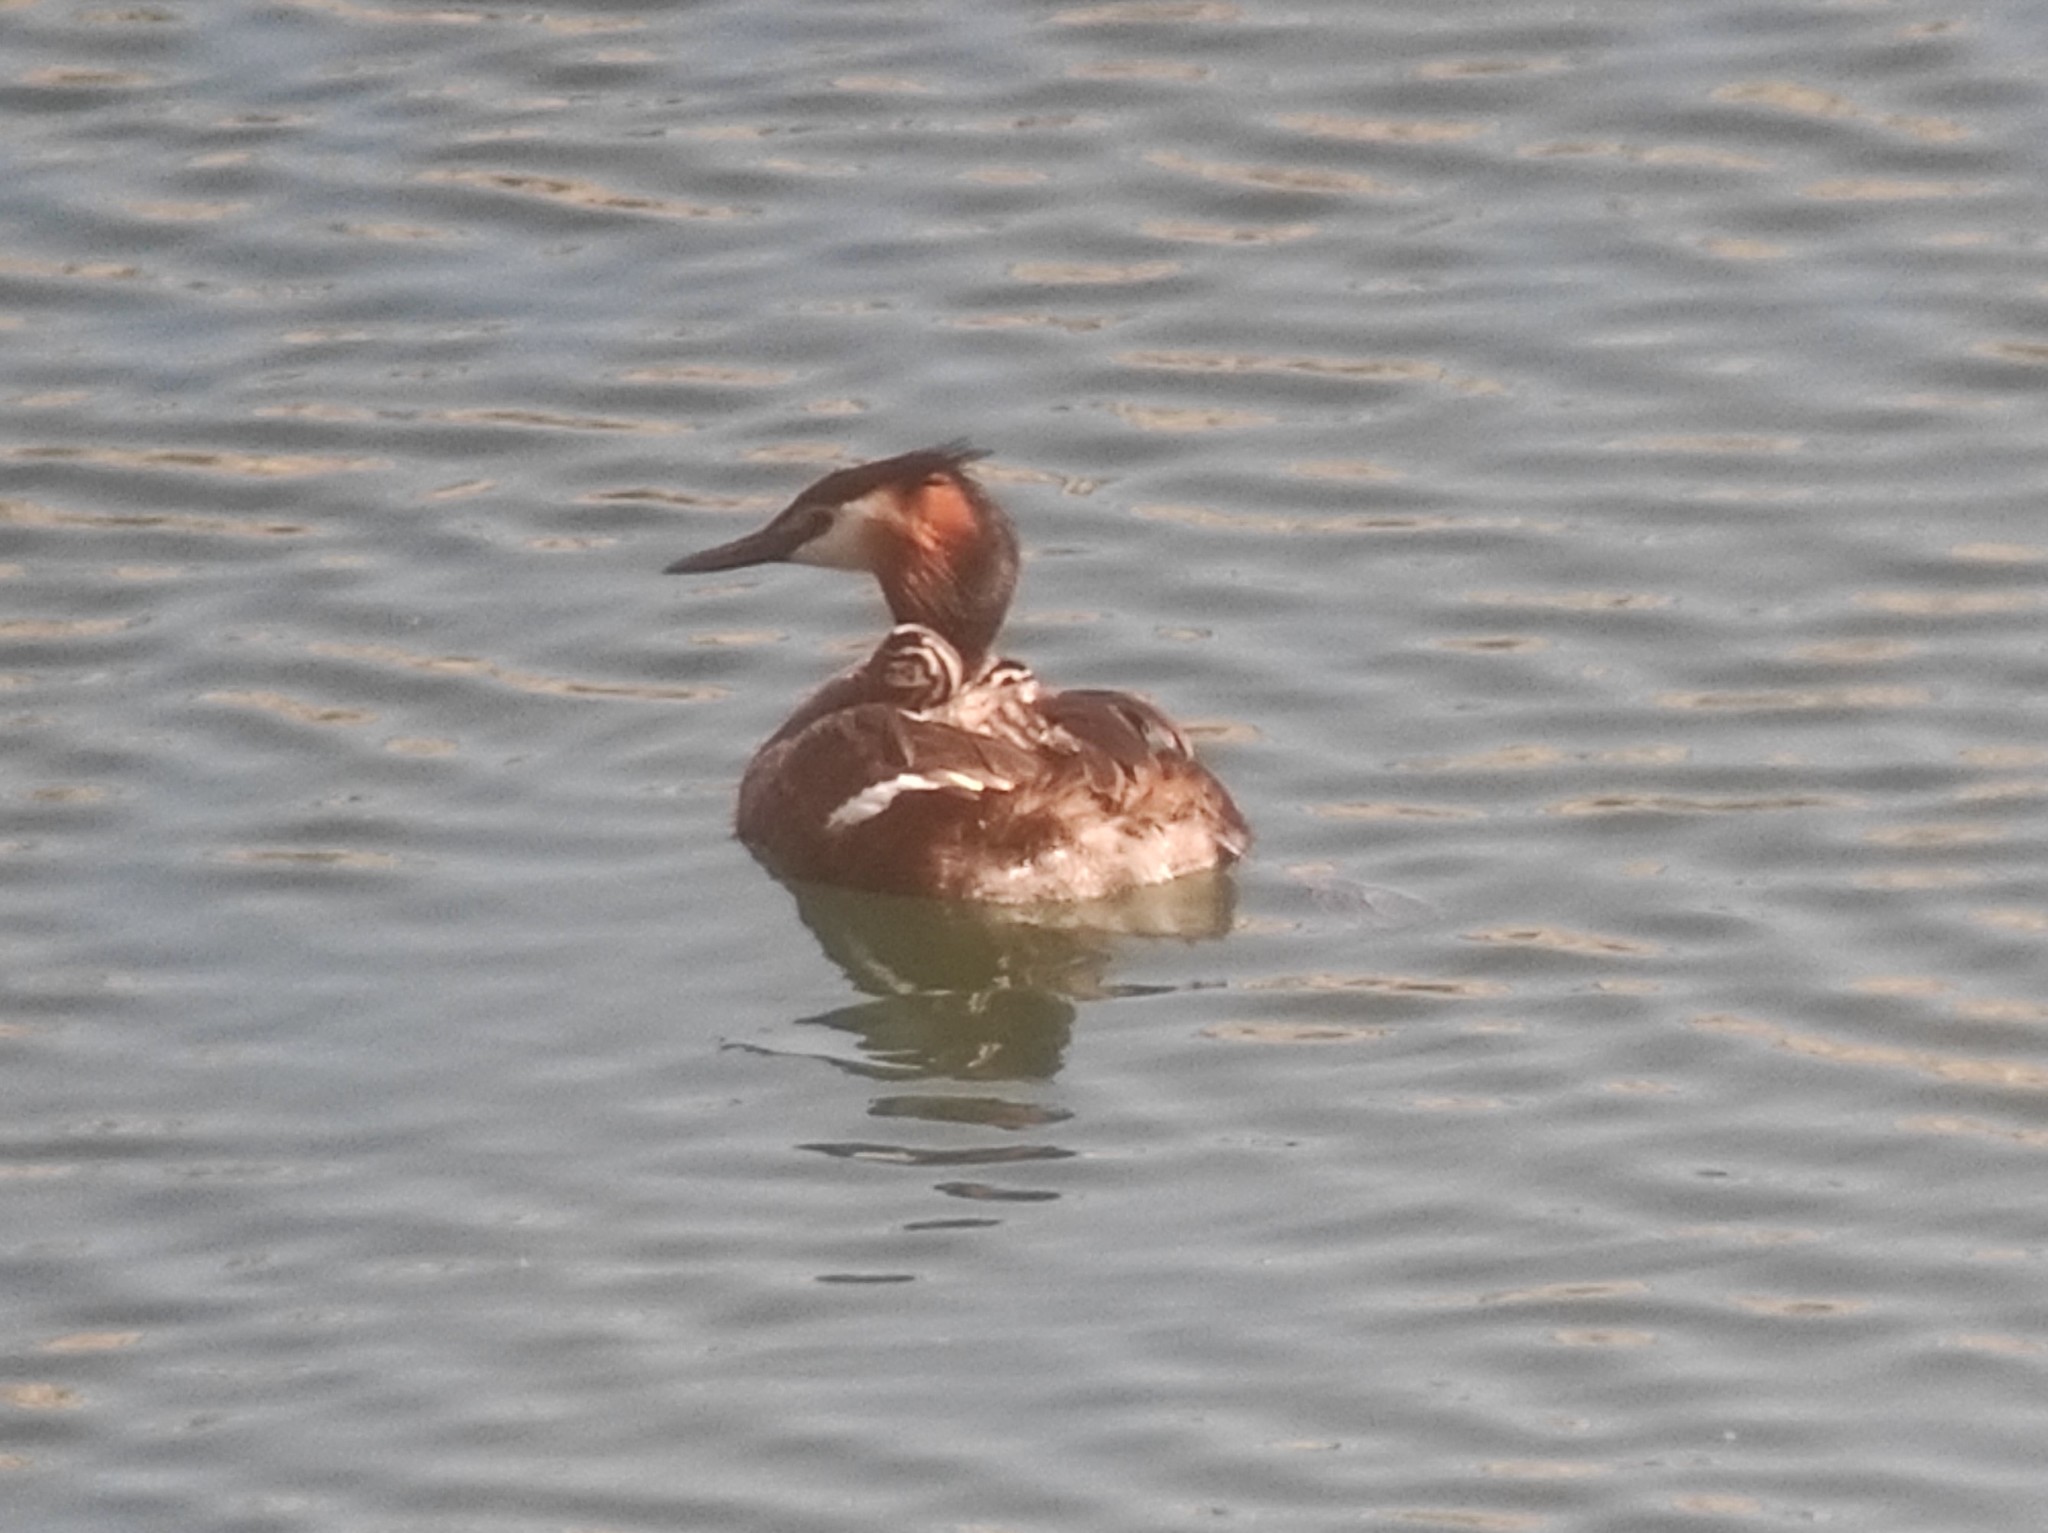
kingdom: Animalia
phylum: Chordata
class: Aves
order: Podicipediformes
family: Podicipedidae
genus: Podiceps
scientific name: Podiceps cristatus
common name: Great crested grebe
